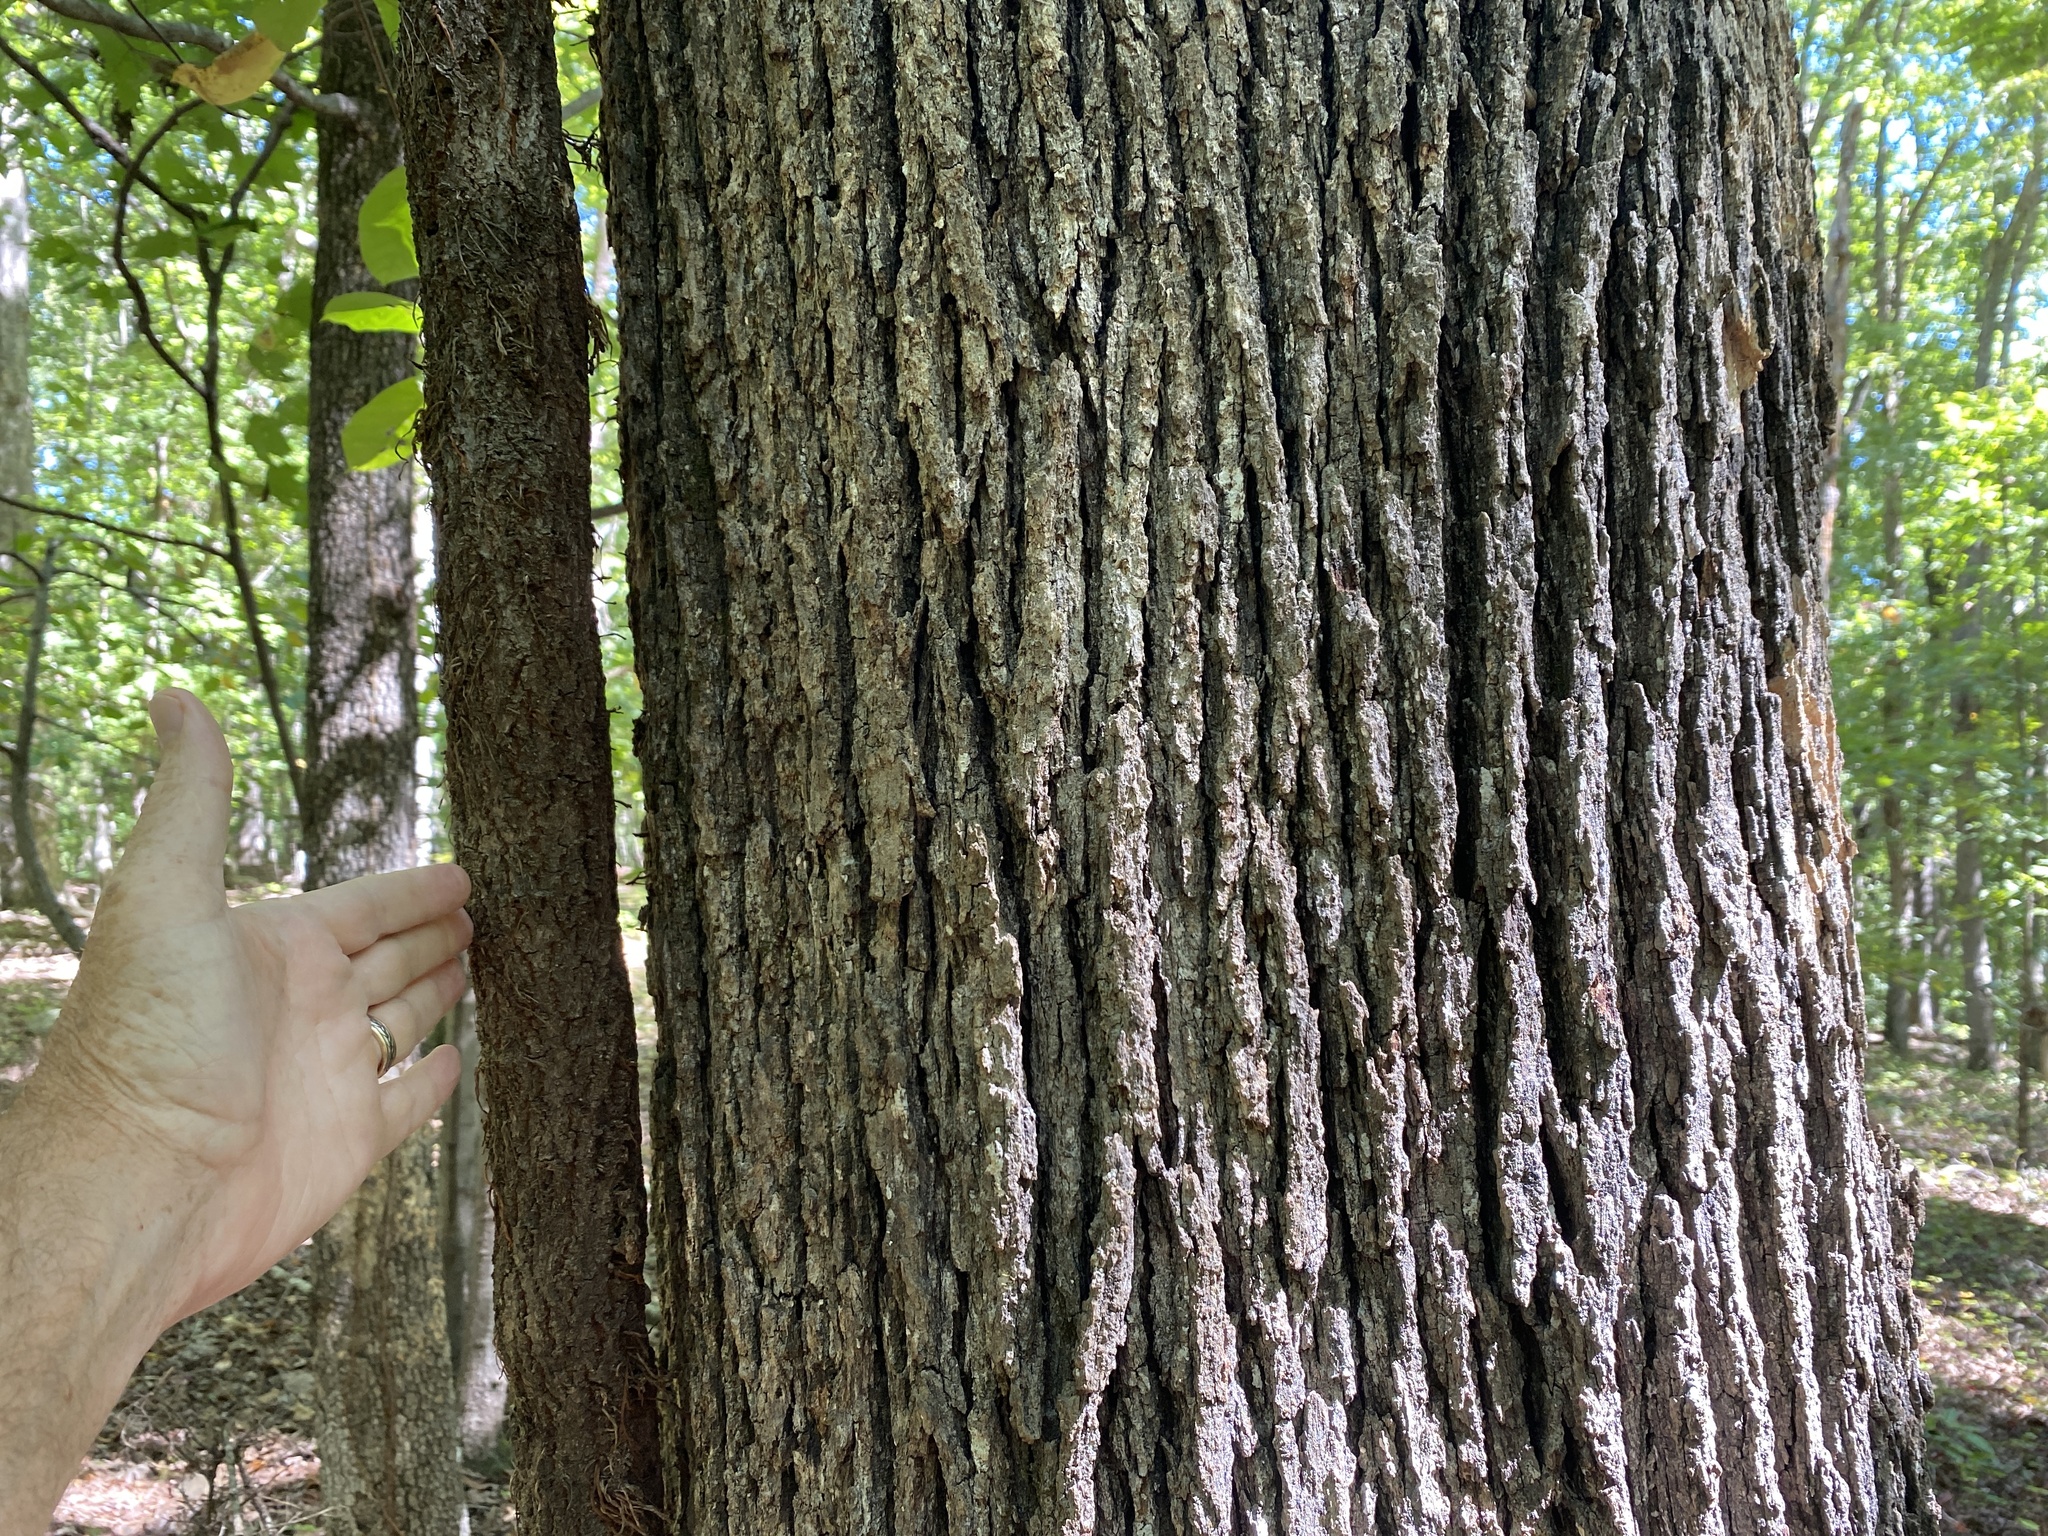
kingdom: Plantae
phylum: Tracheophyta
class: Magnoliopsida
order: Vitales
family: Vitaceae
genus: Parthenocissus
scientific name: Parthenocissus quinquefolia
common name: Virginia-creeper
